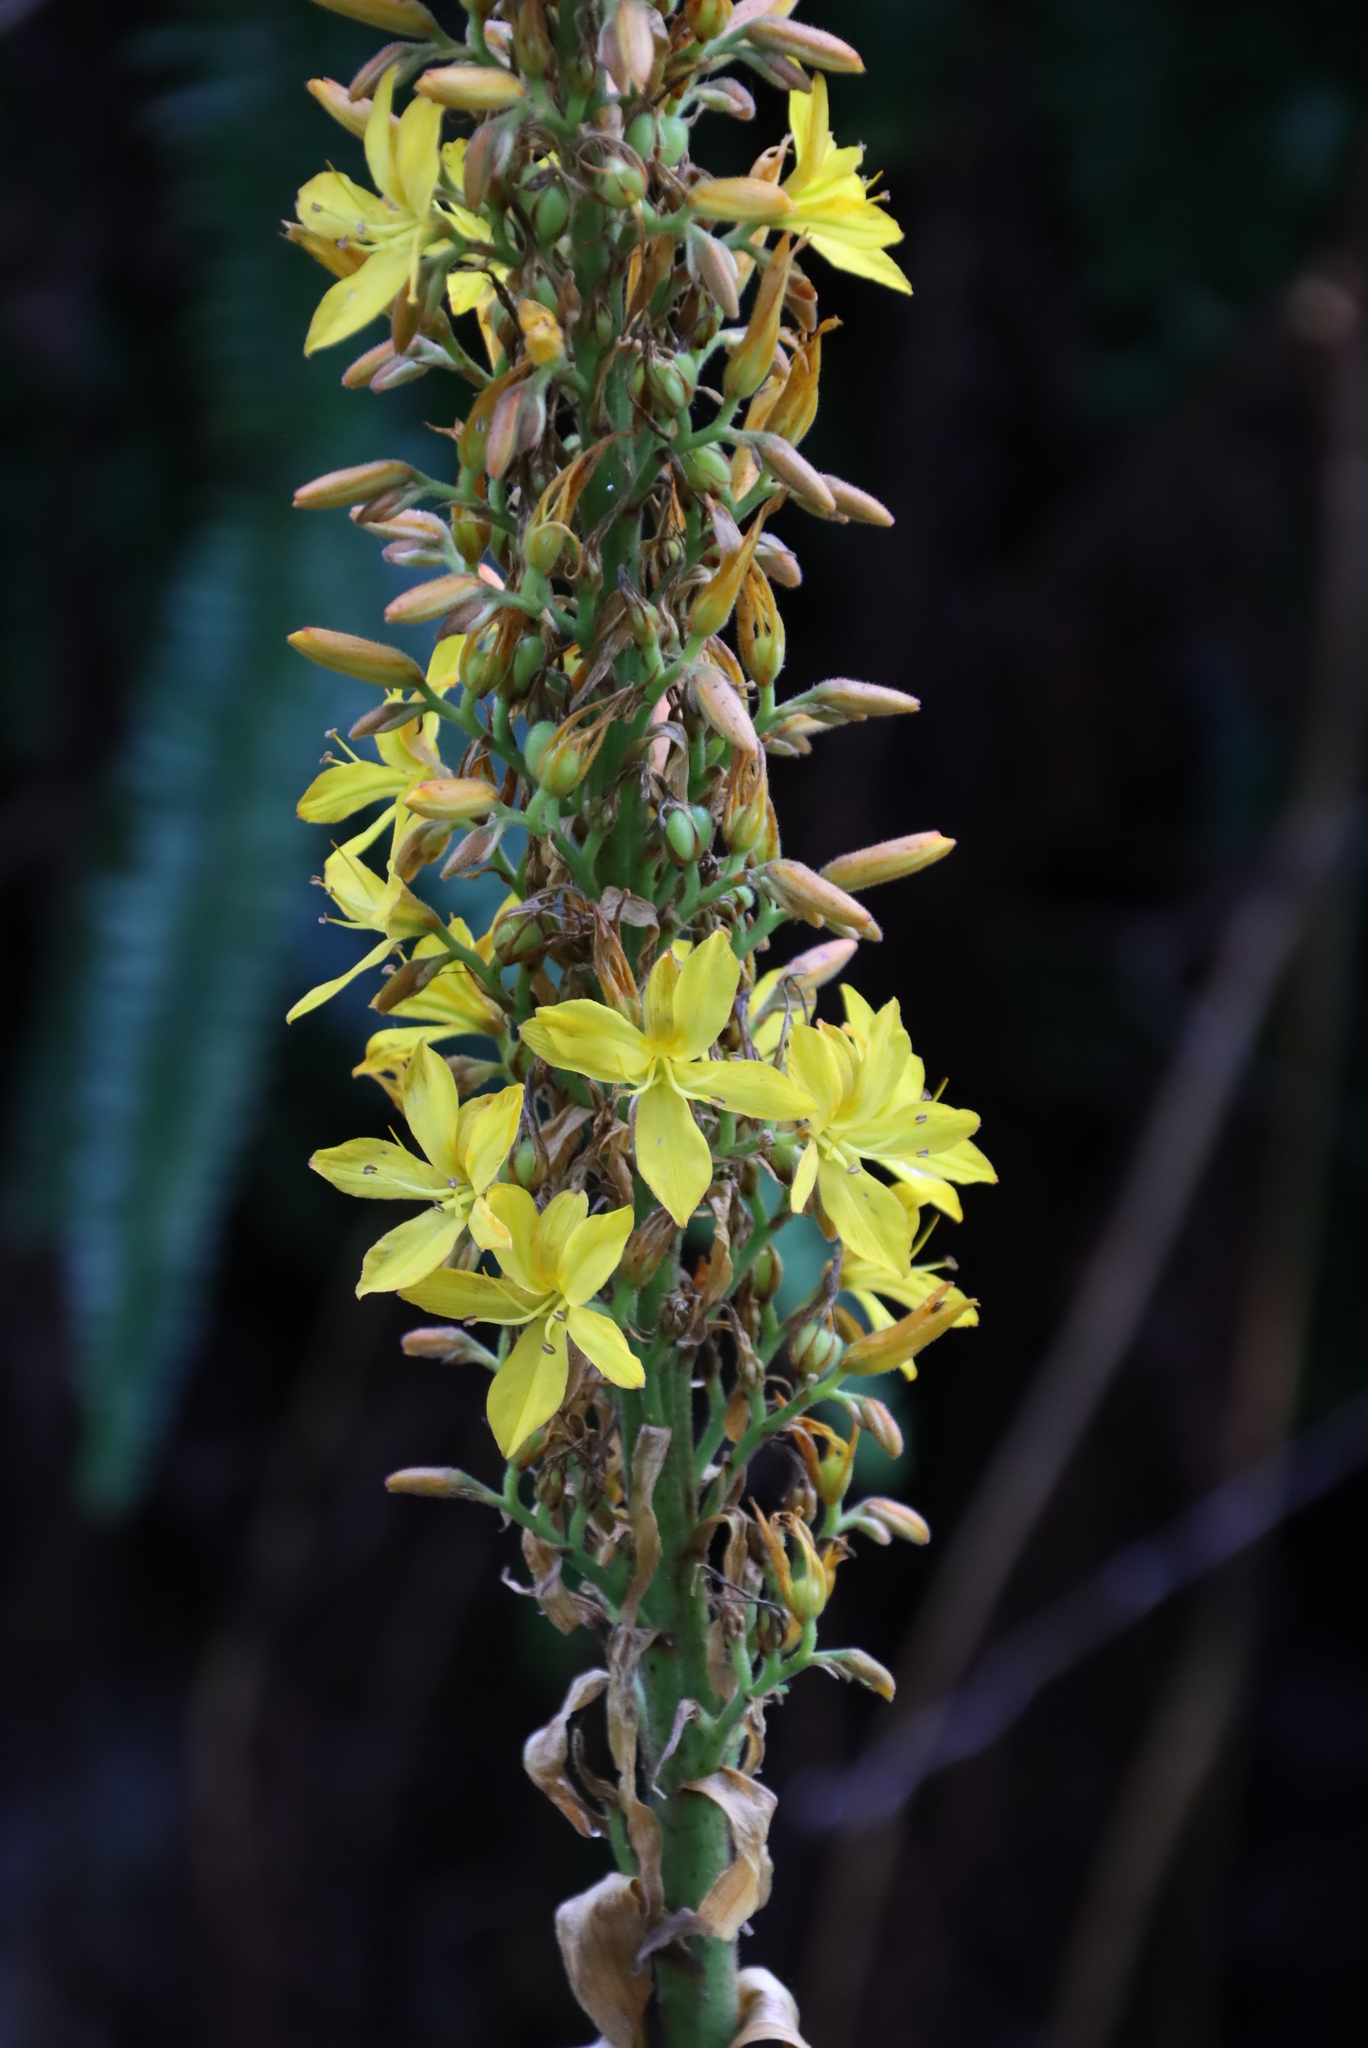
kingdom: Plantae
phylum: Tracheophyta
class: Liliopsida
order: Commelinales
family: Haemodoraceae
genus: Wachendorfia
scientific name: Wachendorfia thyrsiflora
